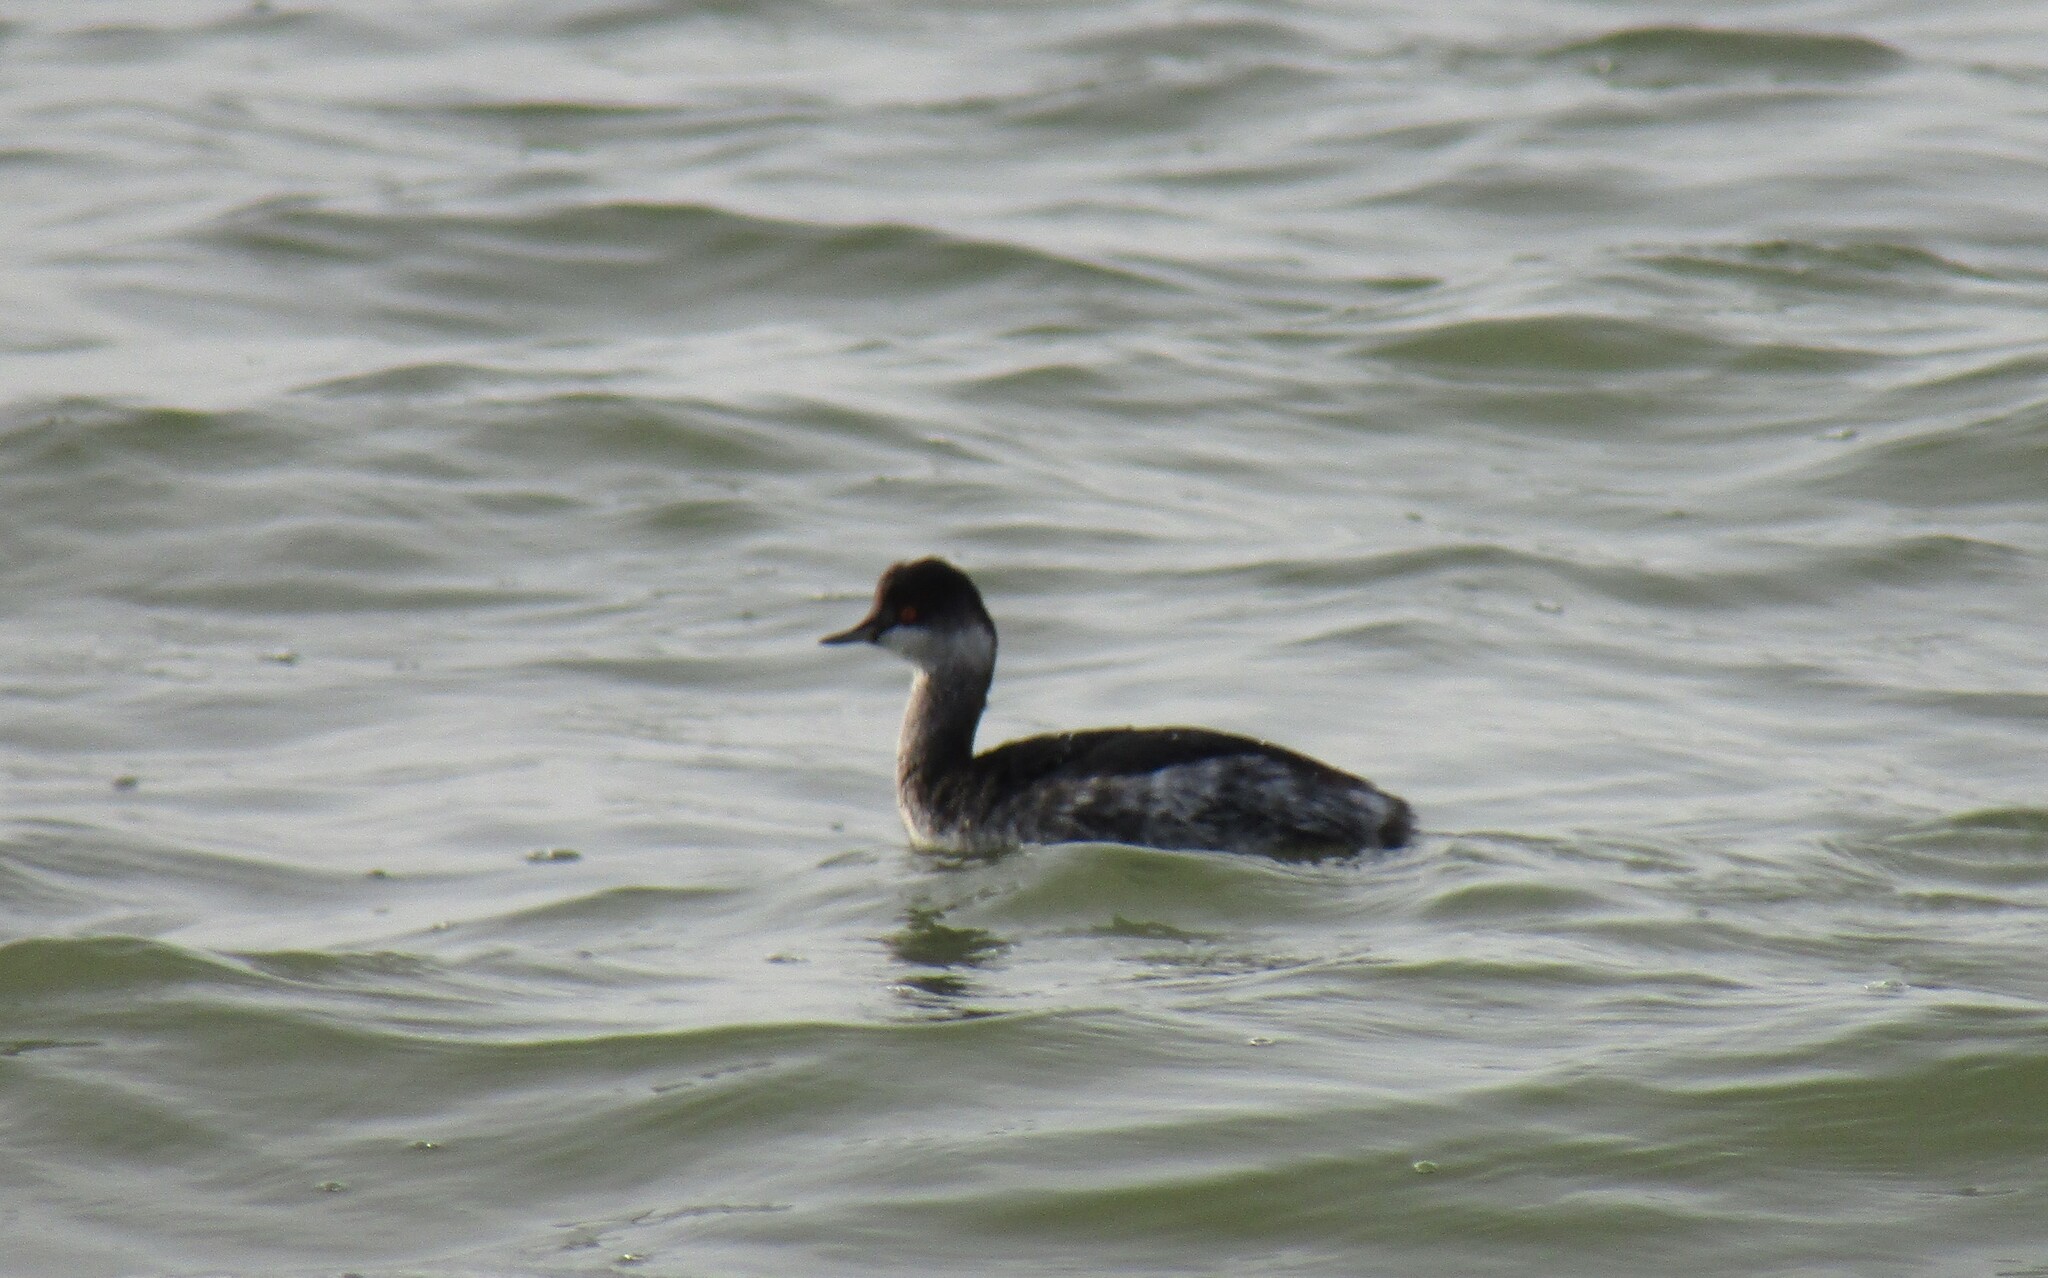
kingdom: Animalia
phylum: Chordata
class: Aves
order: Podicipediformes
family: Podicipedidae
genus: Podiceps
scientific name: Podiceps nigricollis
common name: Black-necked grebe
